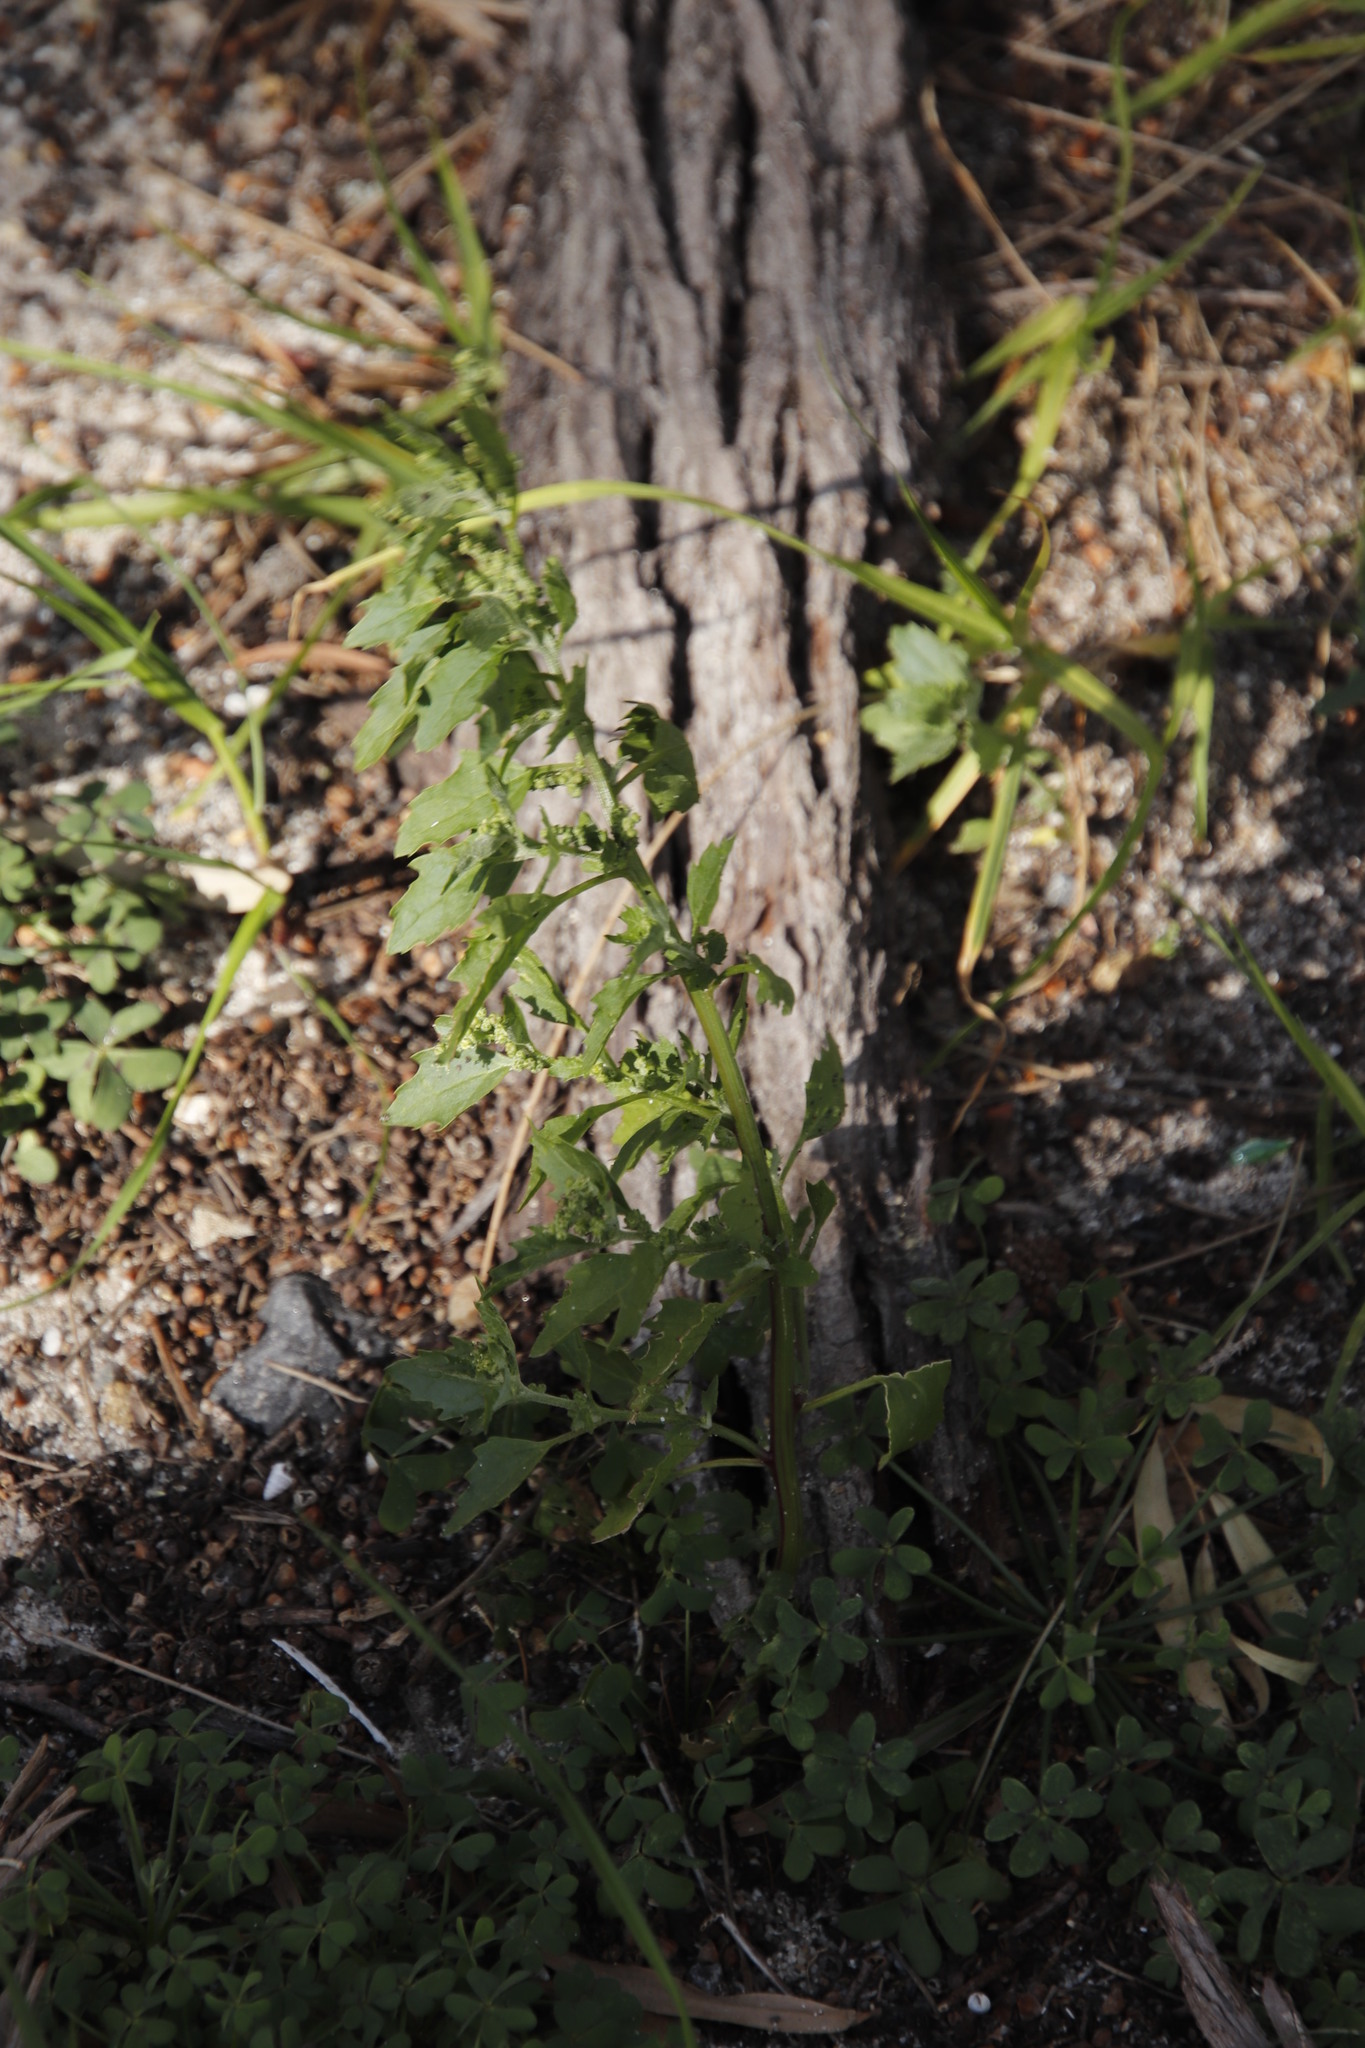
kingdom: Plantae
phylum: Tracheophyta
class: Magnoliopsida
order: Caryophyllales
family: Amaranthaceae
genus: Chenopodiastrum
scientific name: Chenopodiastrum murale
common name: Sowbane
